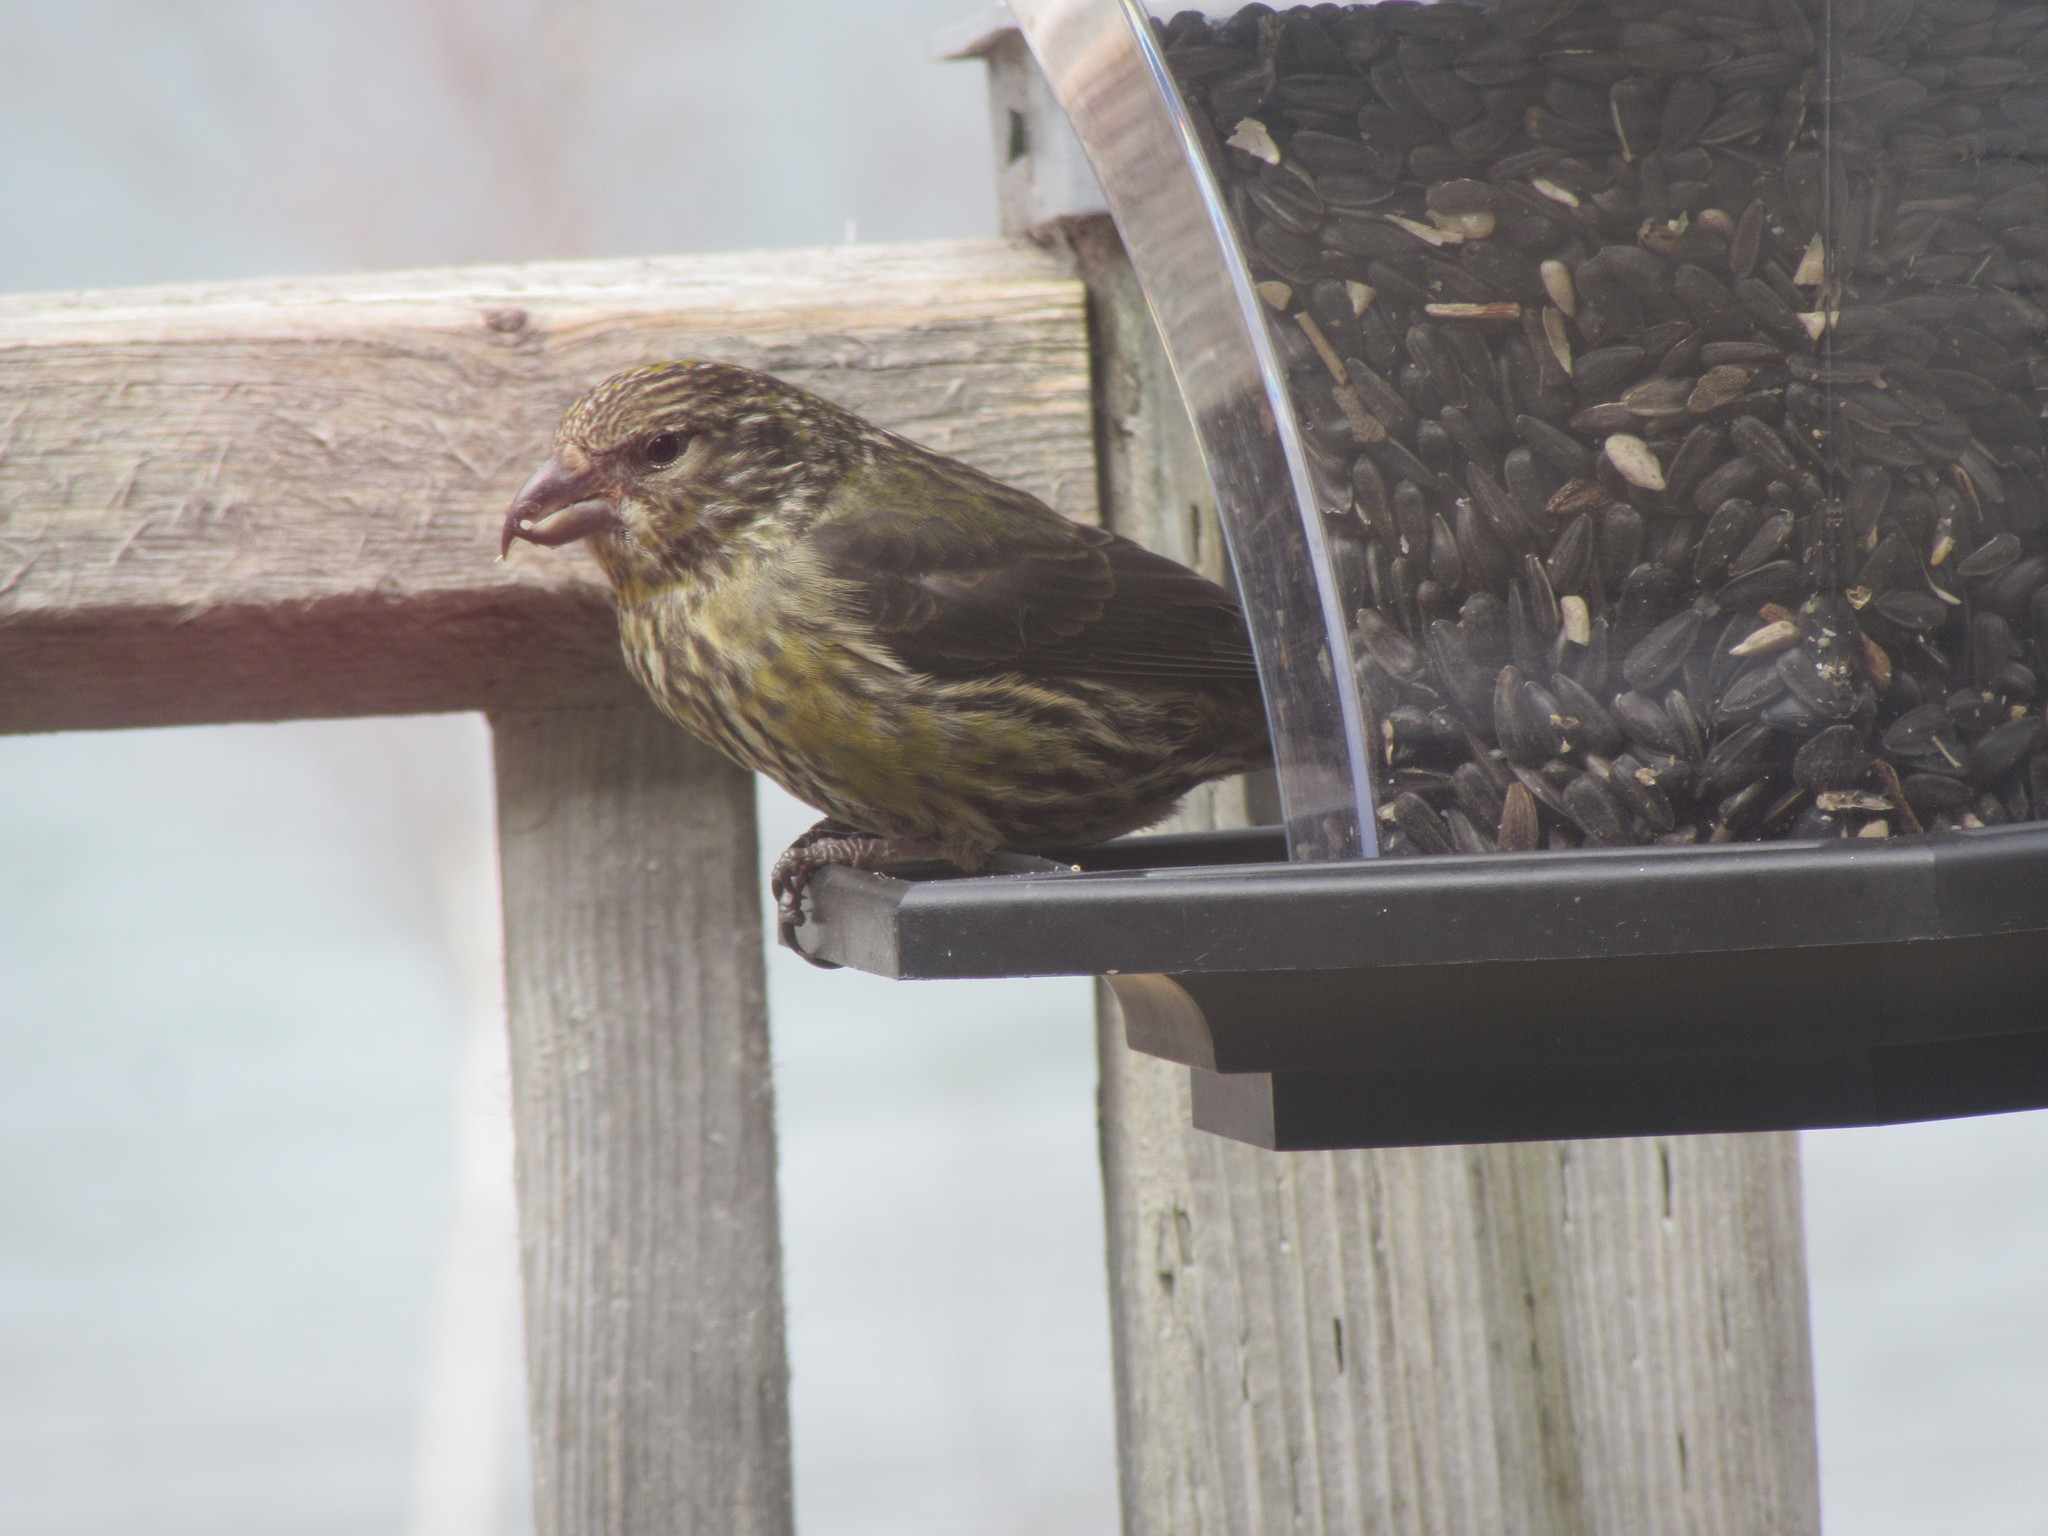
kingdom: Animalia
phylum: Chordata
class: Aves
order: Passeriformes
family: Fringillidae
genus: Loxia
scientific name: Loxia curvirostra
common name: Red crossbill
